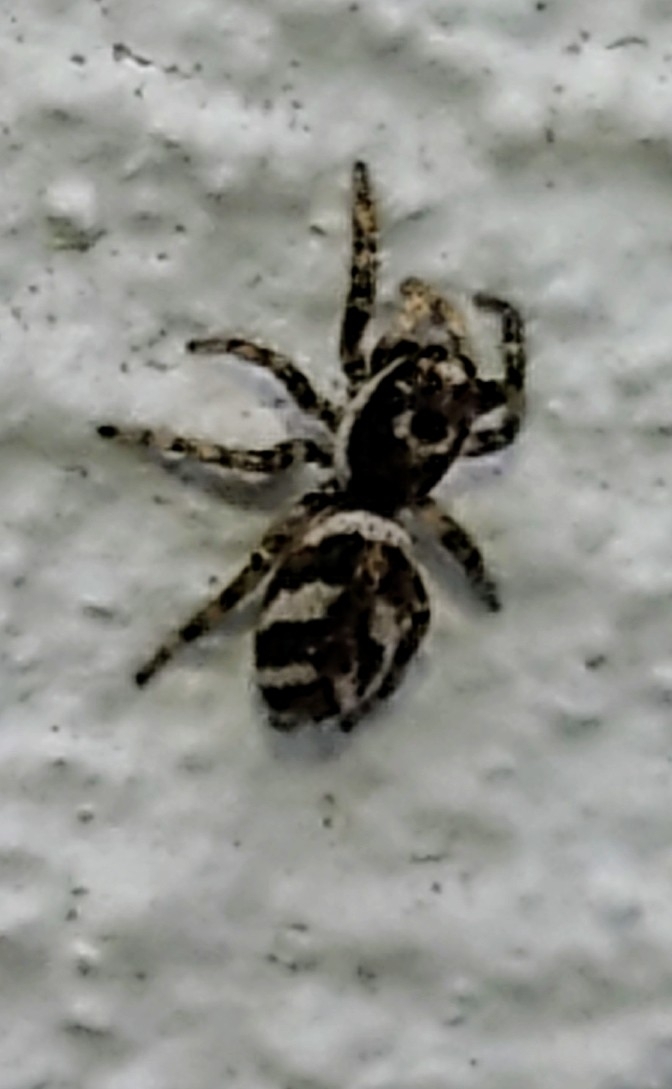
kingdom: Animalia
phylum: Arthropoda
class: Arachnida
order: Araneae
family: Salticidae
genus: Salticus
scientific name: Salticus scenicus
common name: Zebra jumper
